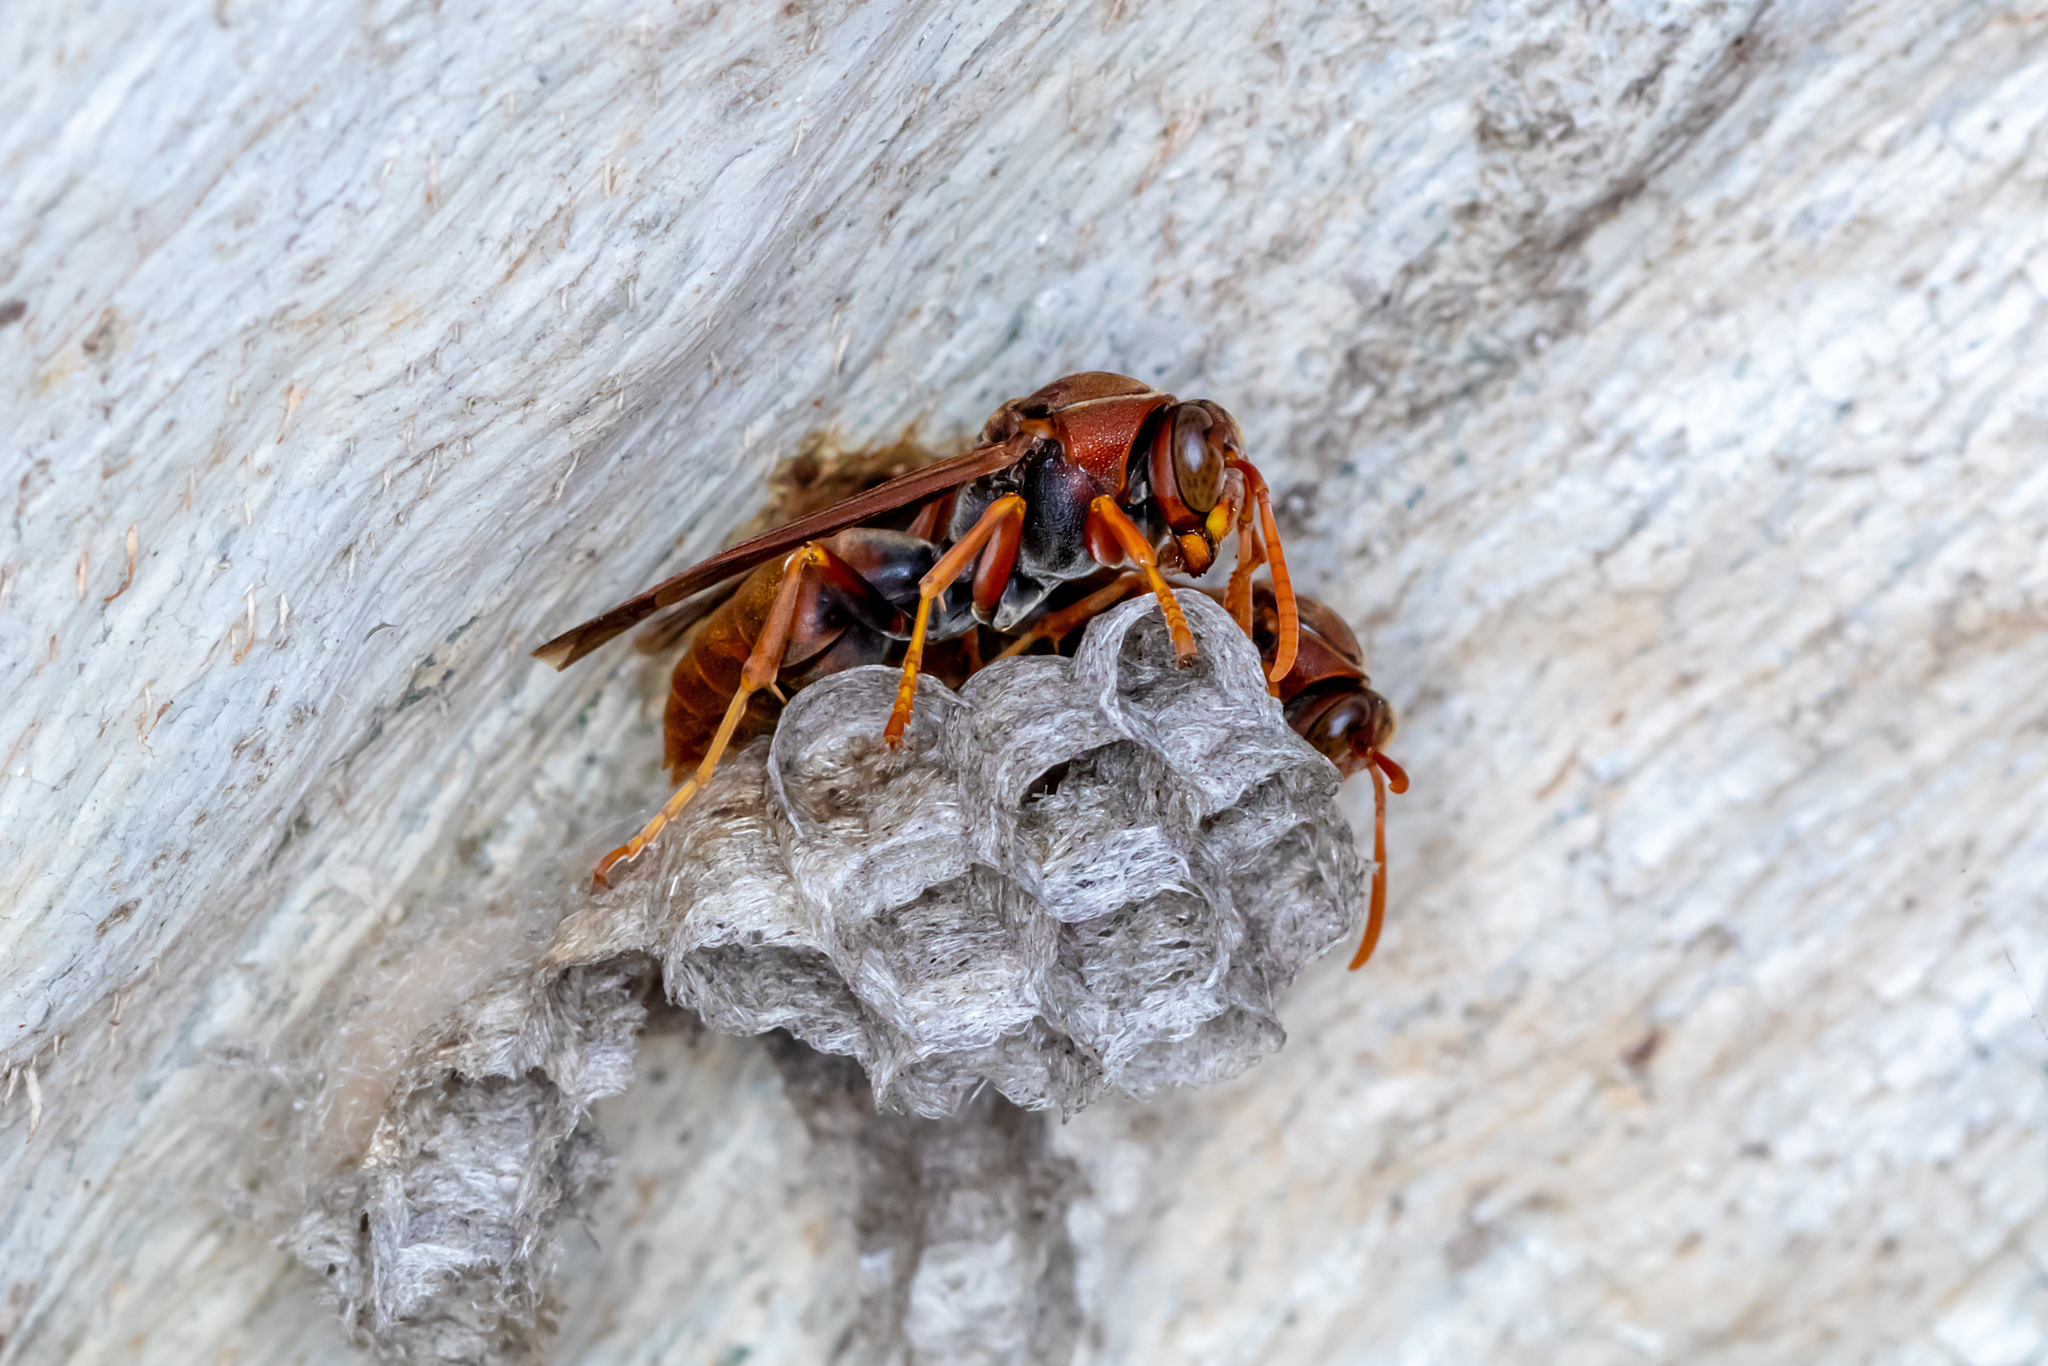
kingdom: Animalia
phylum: Arthropoda
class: Insecta
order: Hymenoptera
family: Eumenidae
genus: Polistes
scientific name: Polistes humilis
